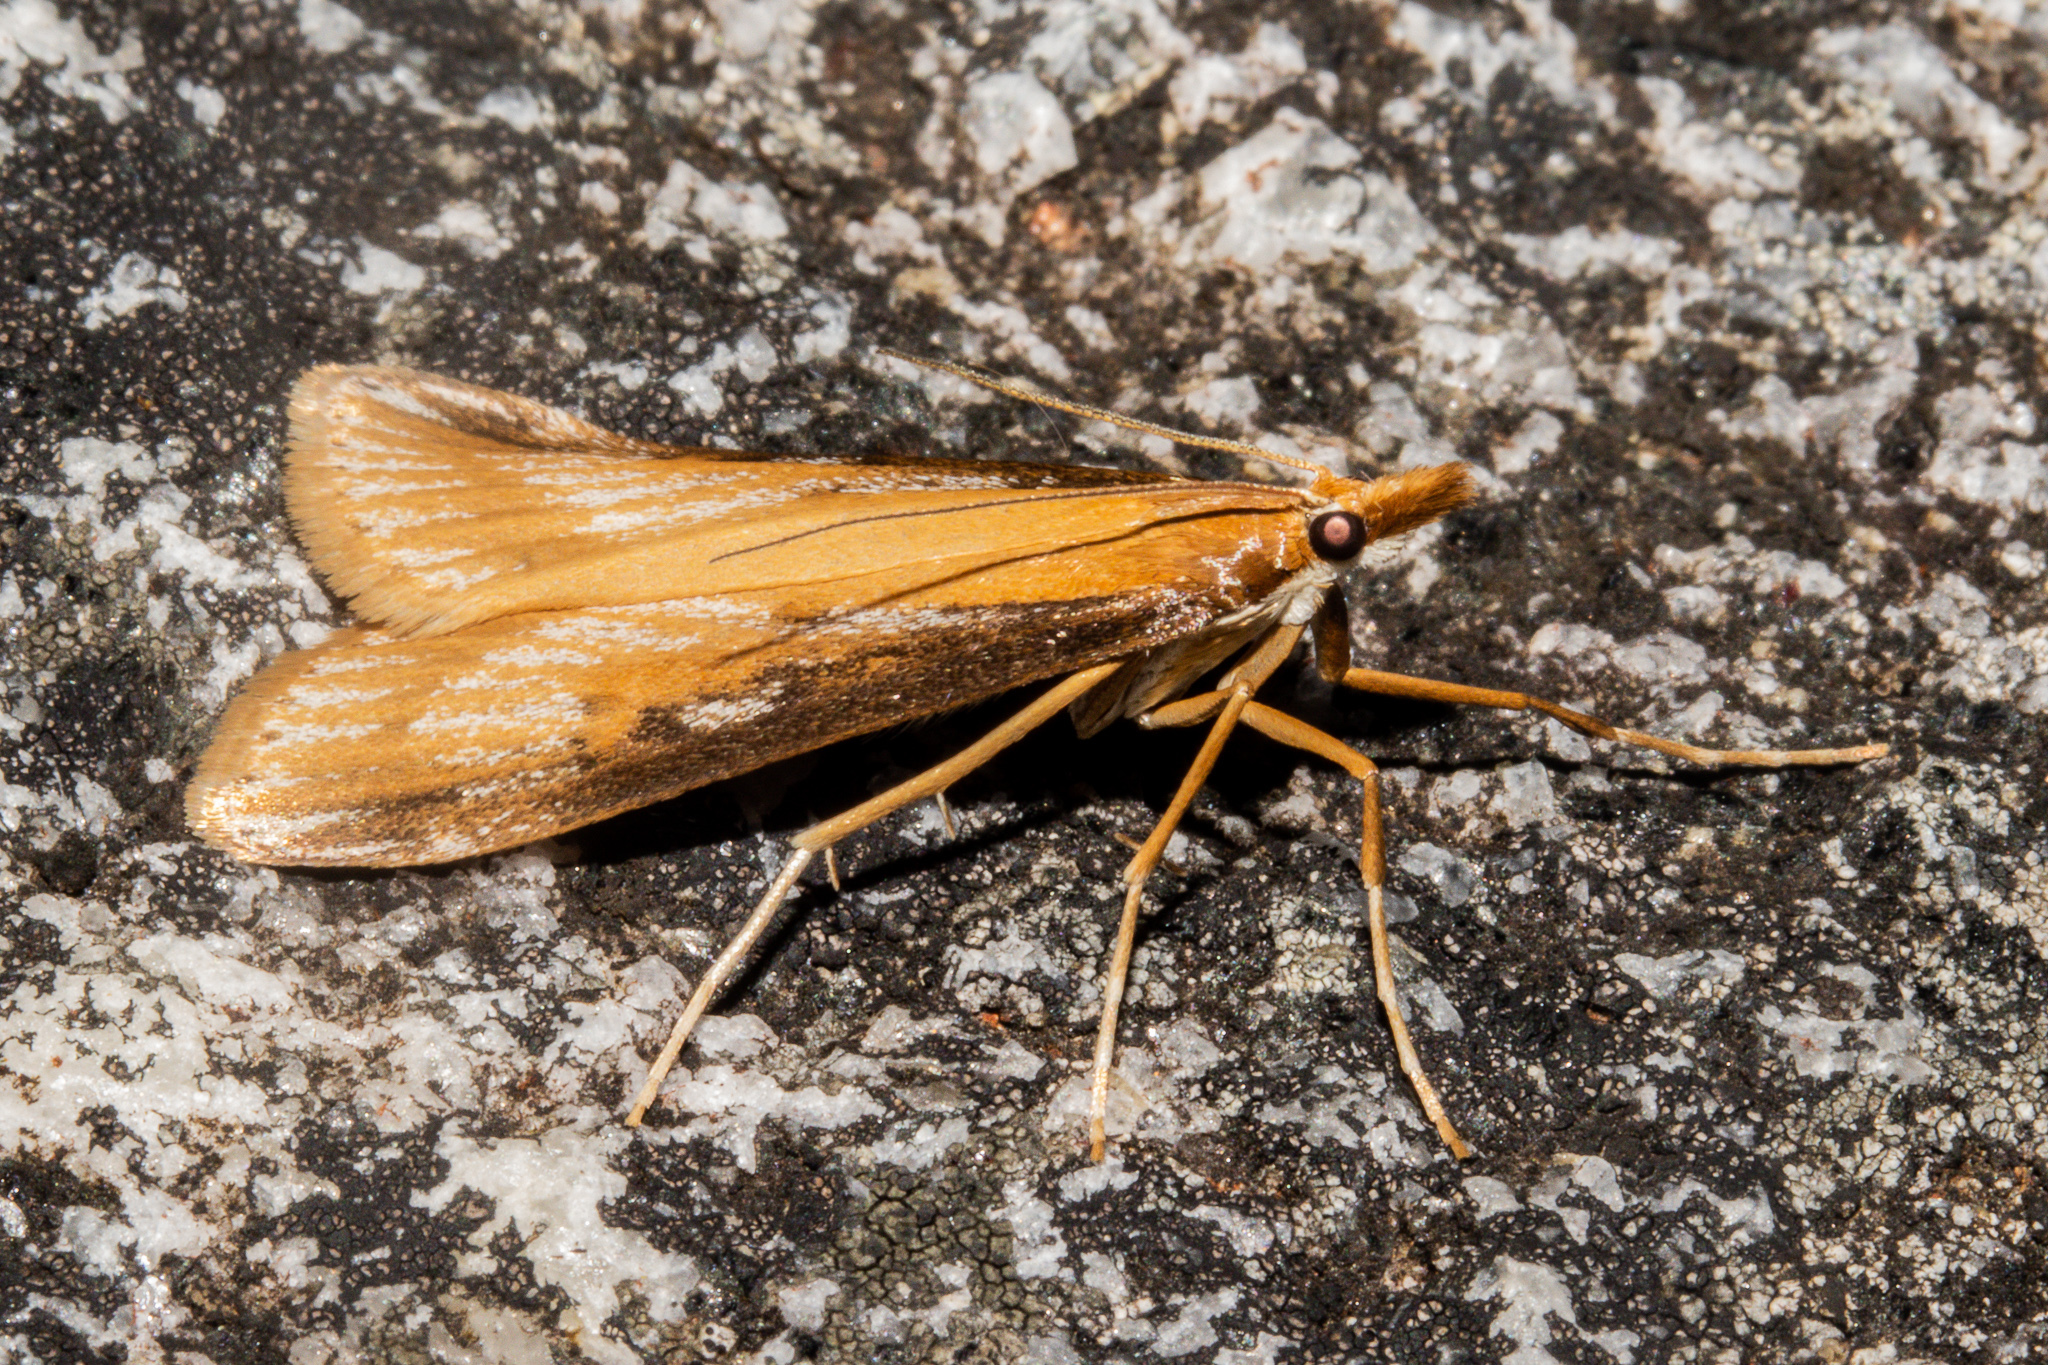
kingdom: Animalia
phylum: Arthropoda
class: Insecta
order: Lepidoptera
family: Crambidae
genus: Scoparia
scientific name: Scoparia dryphactis
